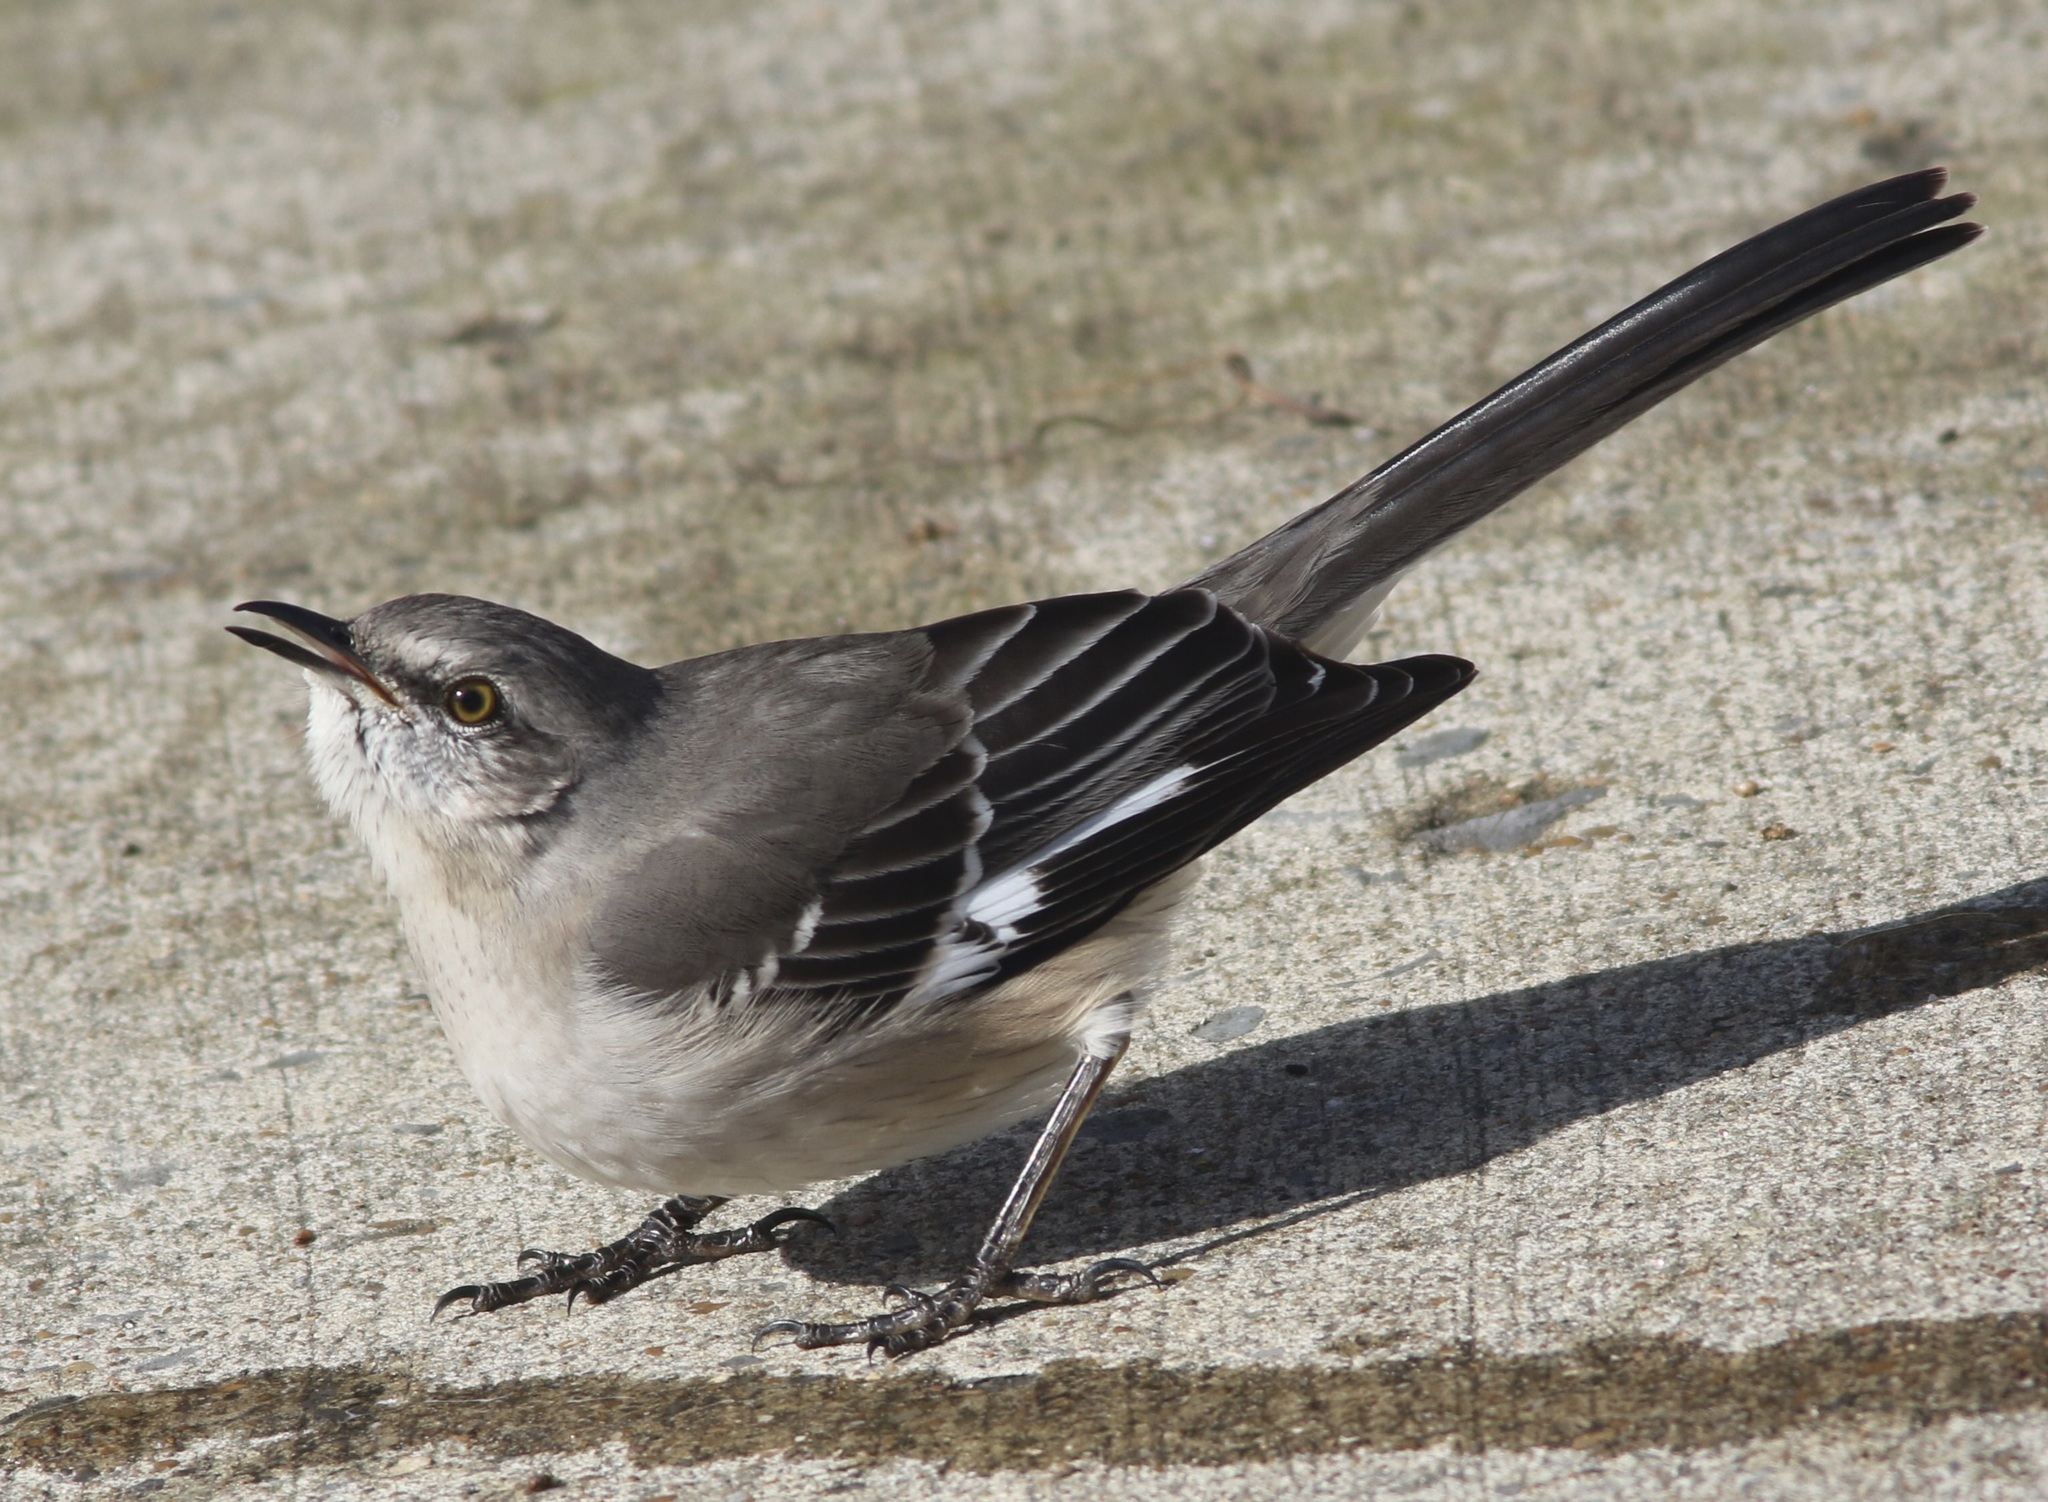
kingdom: Animalia
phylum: Chordata
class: Aves
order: Passeriformes
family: Mimidae
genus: Mimus
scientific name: Mimus polyglottos
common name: Northern mockingbird
